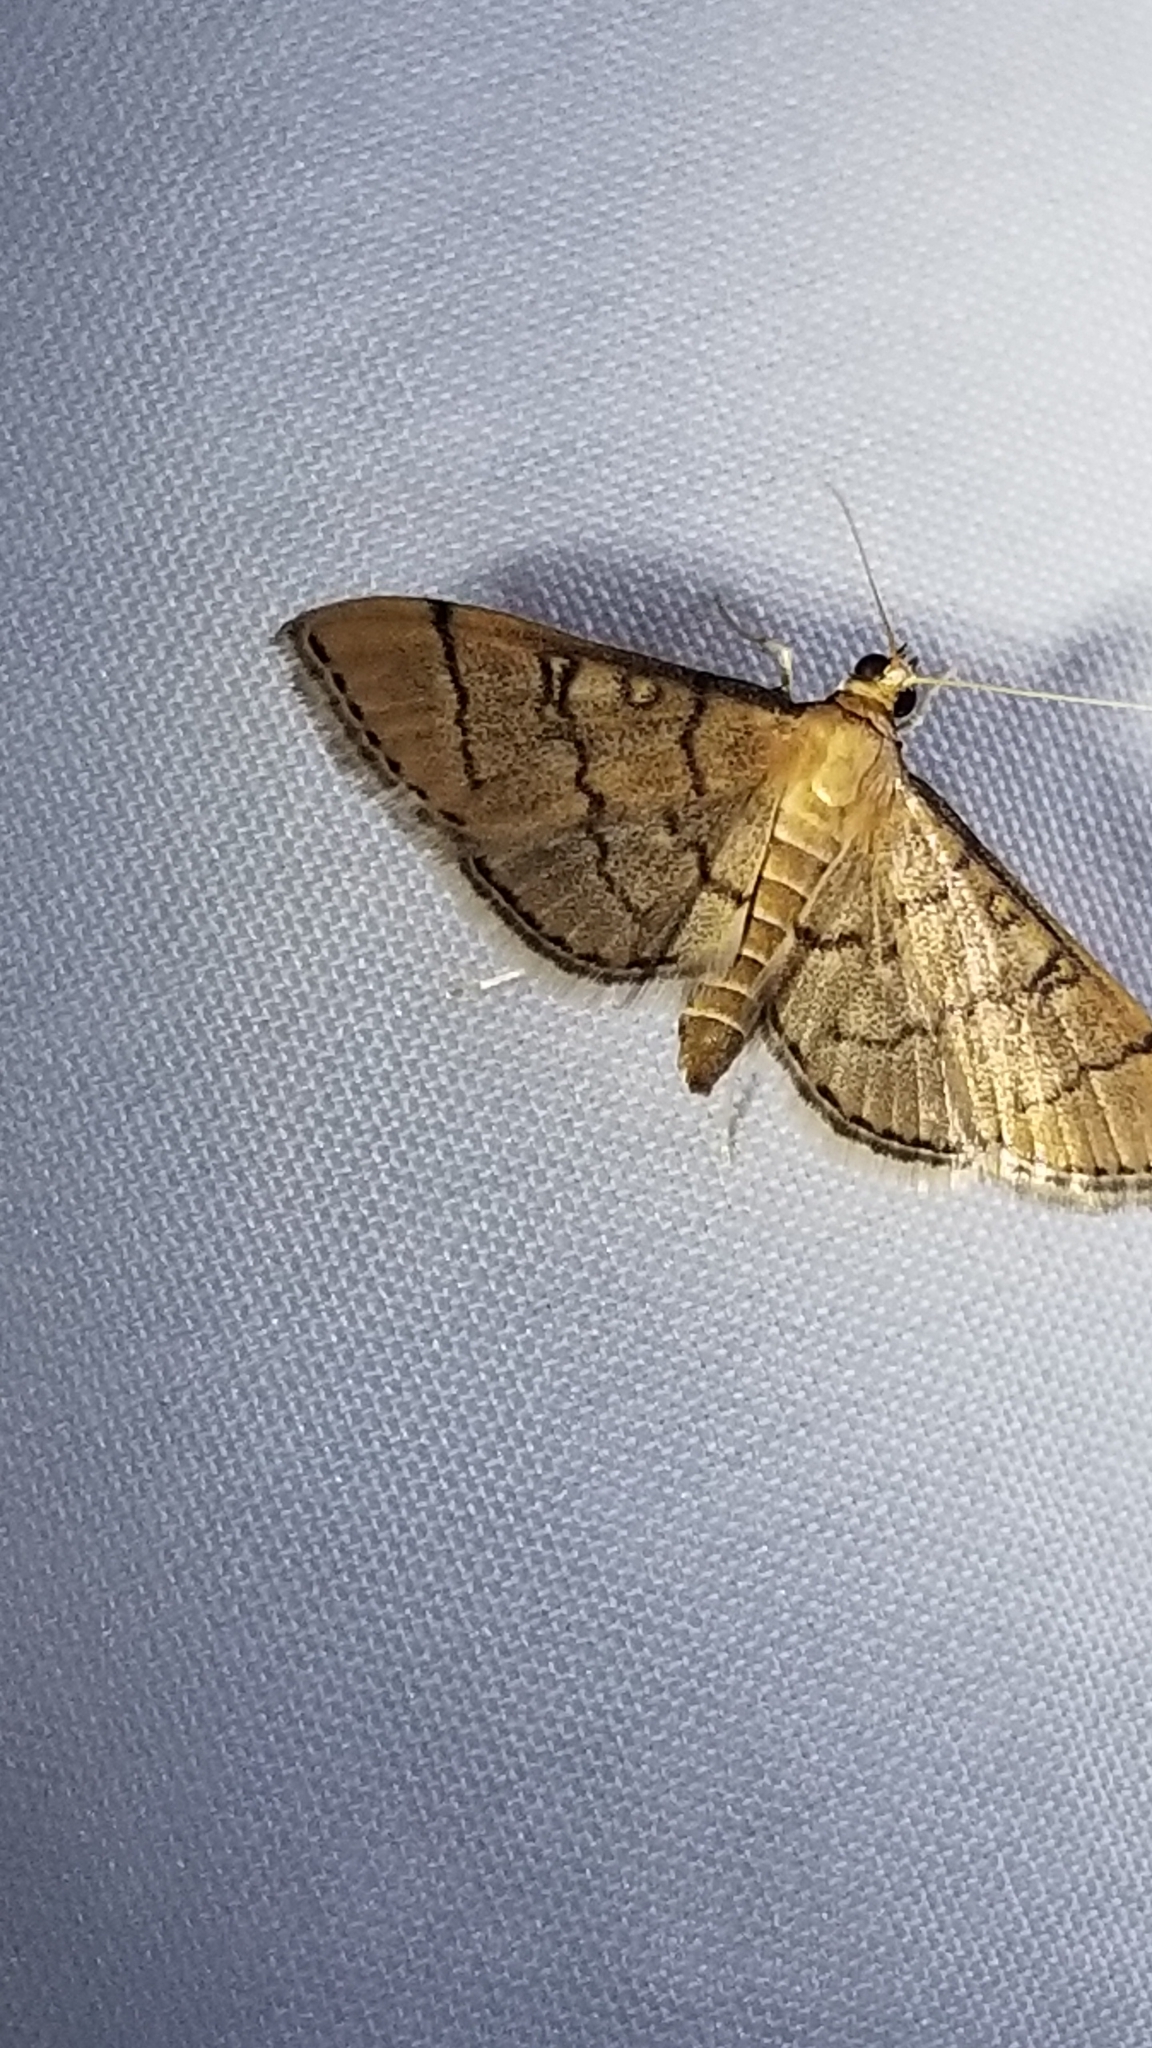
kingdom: Animalia
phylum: Arthropoda
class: Insecta
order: Lepidoptera
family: Crambidae
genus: Lamprosema
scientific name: Lamprosema Blepharomastix ranalis
